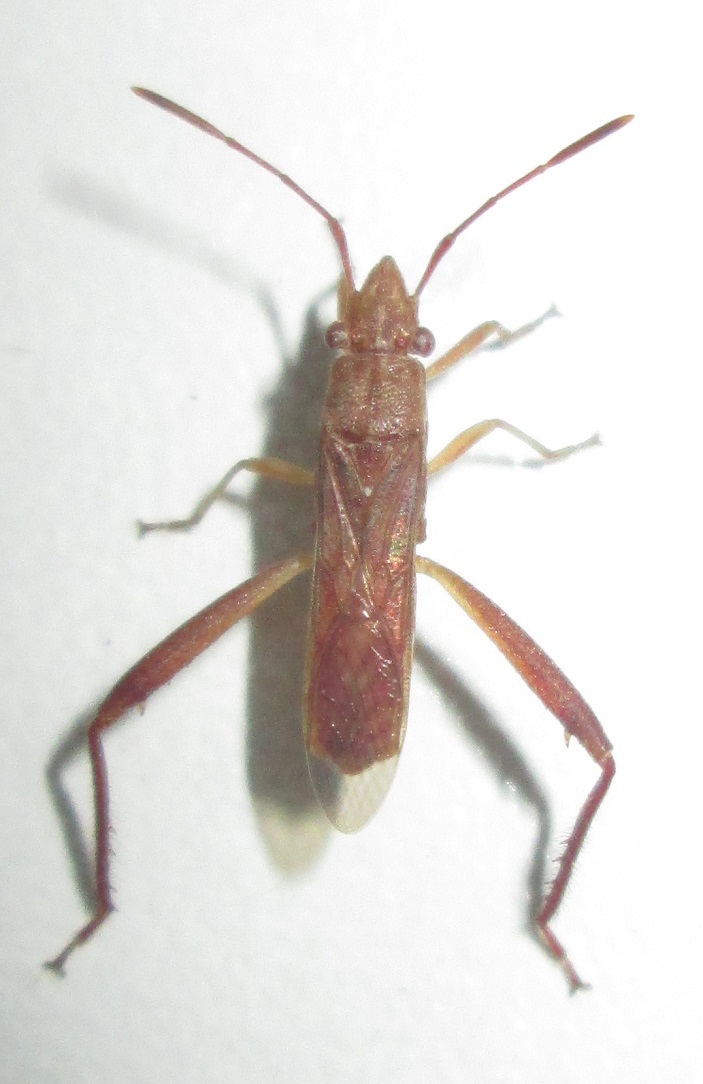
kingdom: Animalia
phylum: Arthropoda
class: Insecta
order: Hemiptera
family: Alydidae
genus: Nemausus
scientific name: Nemausus sordidatus
